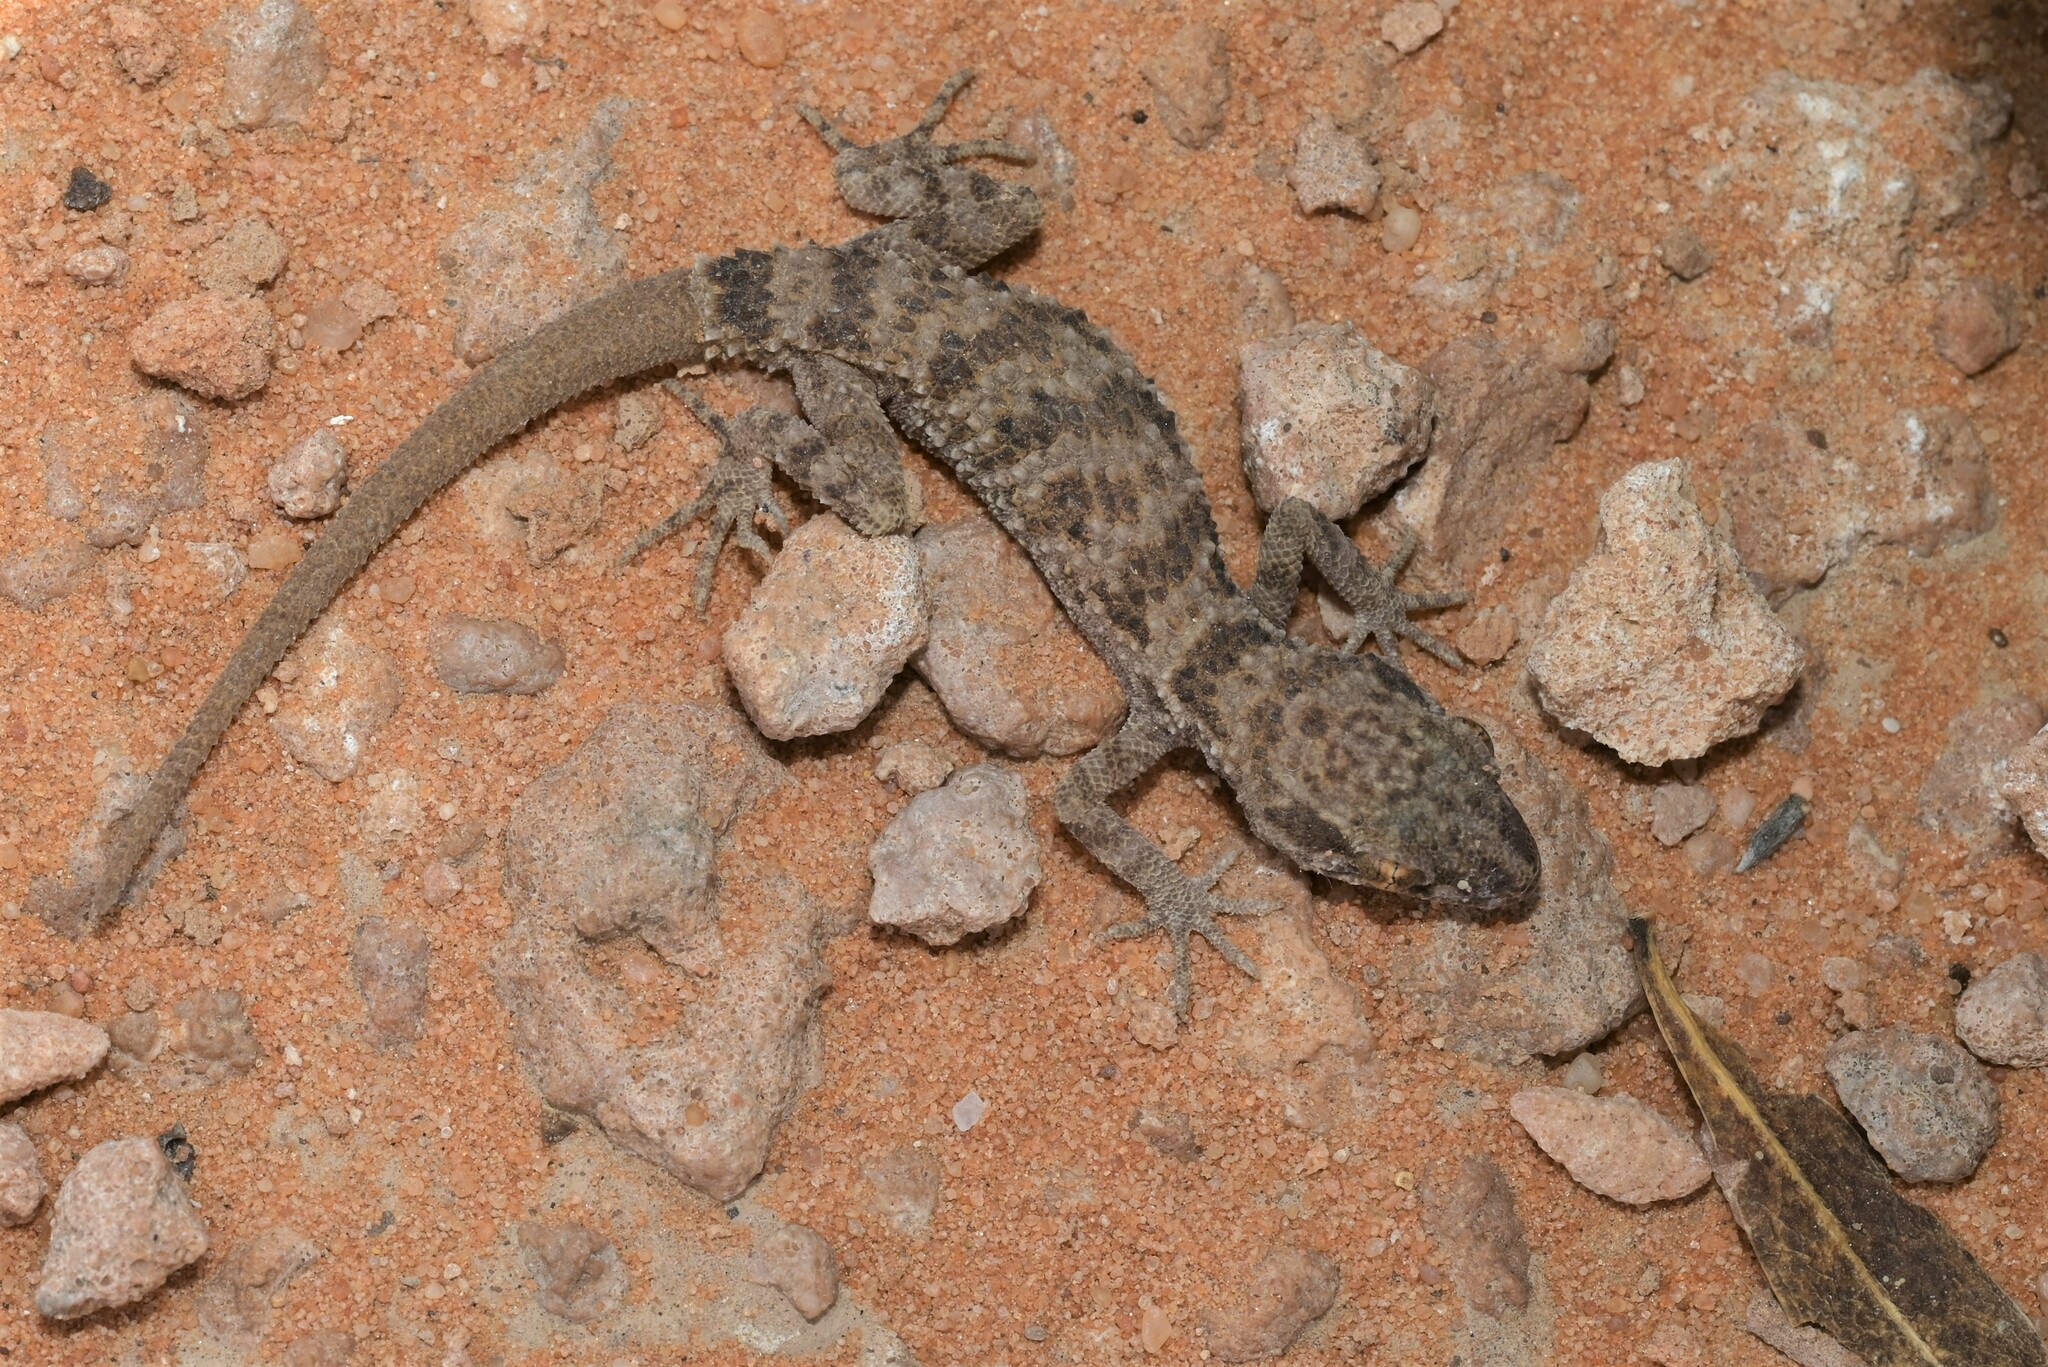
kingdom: Animalia
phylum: Chordata
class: Squamata
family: Gekkonidae
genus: Bunopus
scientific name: Bunopus tuberculatus
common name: Southern tuberculated gecko
